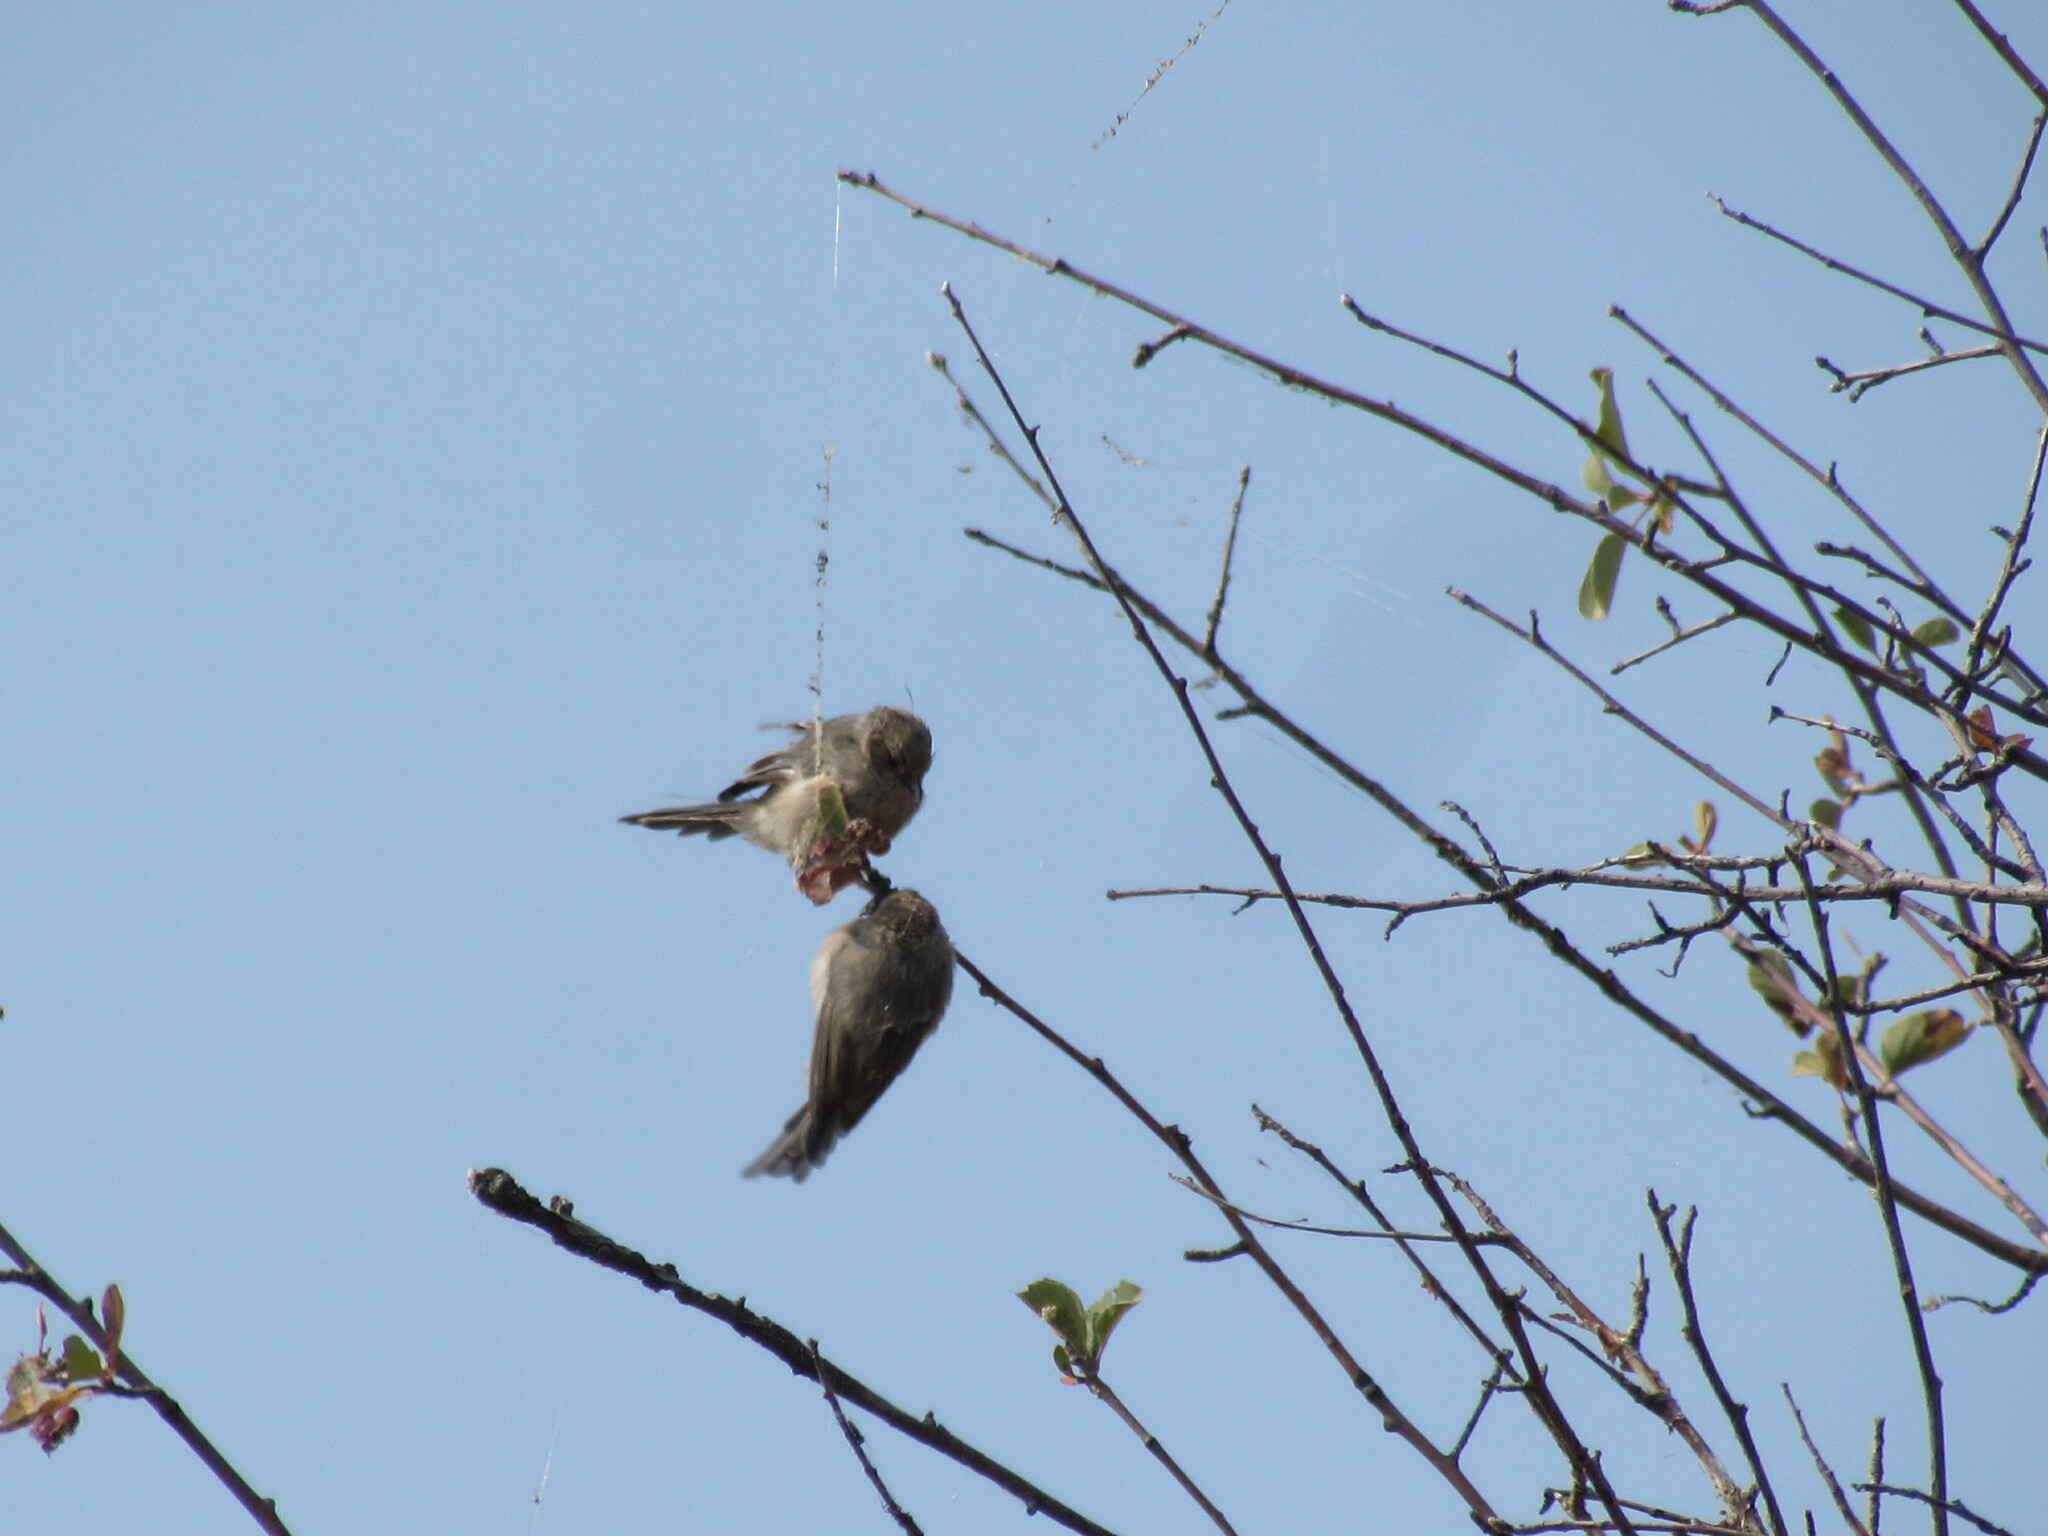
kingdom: Animalia
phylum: Chordata
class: Aves
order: Passeriformes
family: Aegithalidae
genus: Psaltriparus
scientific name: Psaltriparus minimus
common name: American bushtit
